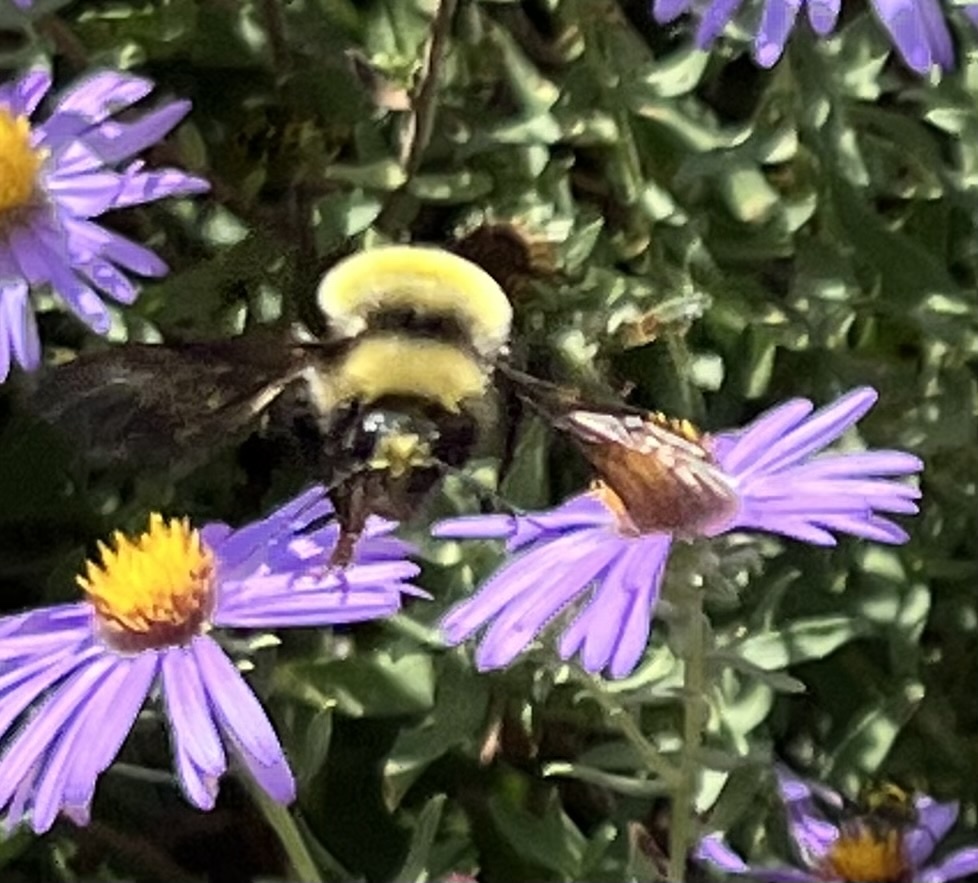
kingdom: Animalia
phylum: Arthropoda
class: Insecta
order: Hymenoptera
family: Apidae
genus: Bombus
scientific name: Bombus pensylvanicus
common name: Bumble bee
